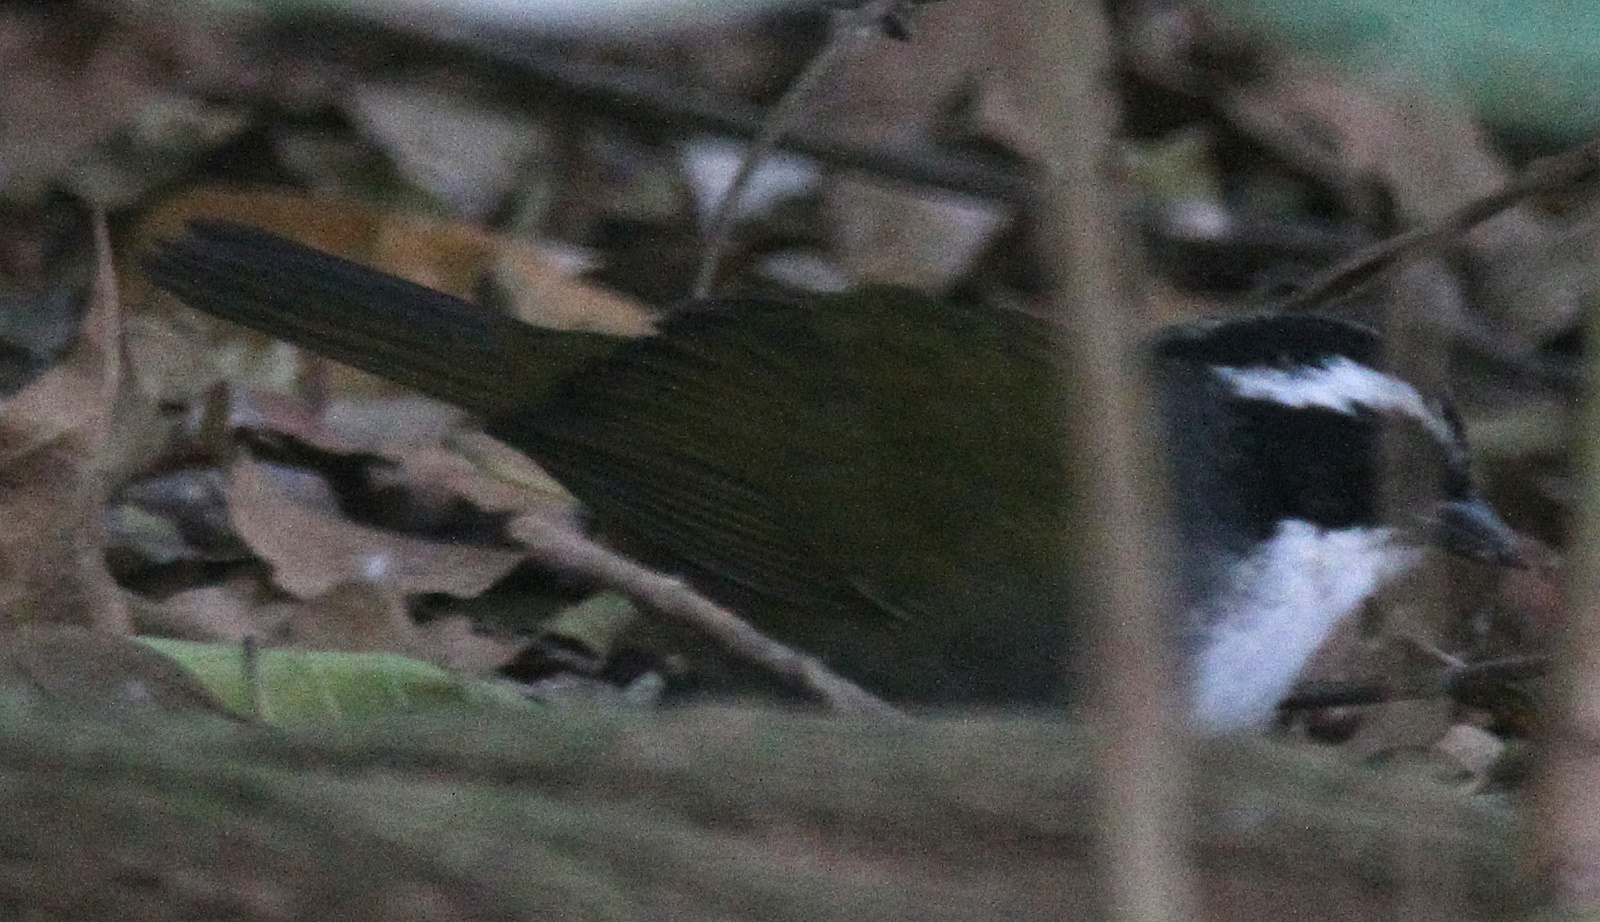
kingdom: Animalia
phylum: Chordata
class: Aves
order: Passeriformes
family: Passerellidae
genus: Arremon
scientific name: Arremon torquatus
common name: White-browed brushfinch
